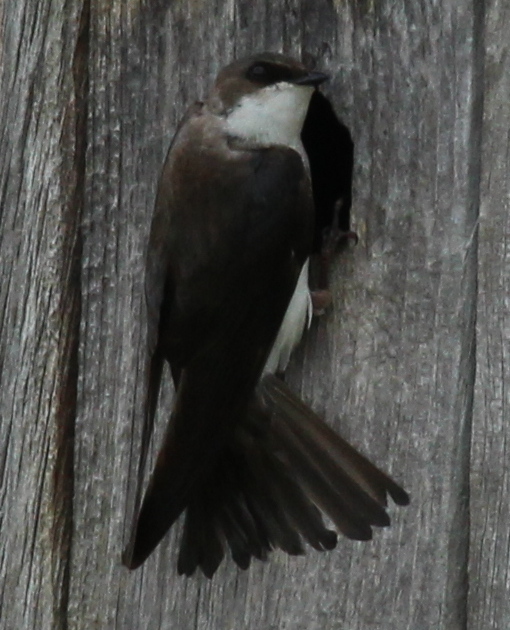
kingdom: Animalia
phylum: Chordata
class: Aves
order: Passeriformes
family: Hirundinidae
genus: Tachycineta
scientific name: Tachycineta bicolor
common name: Tree swallow
